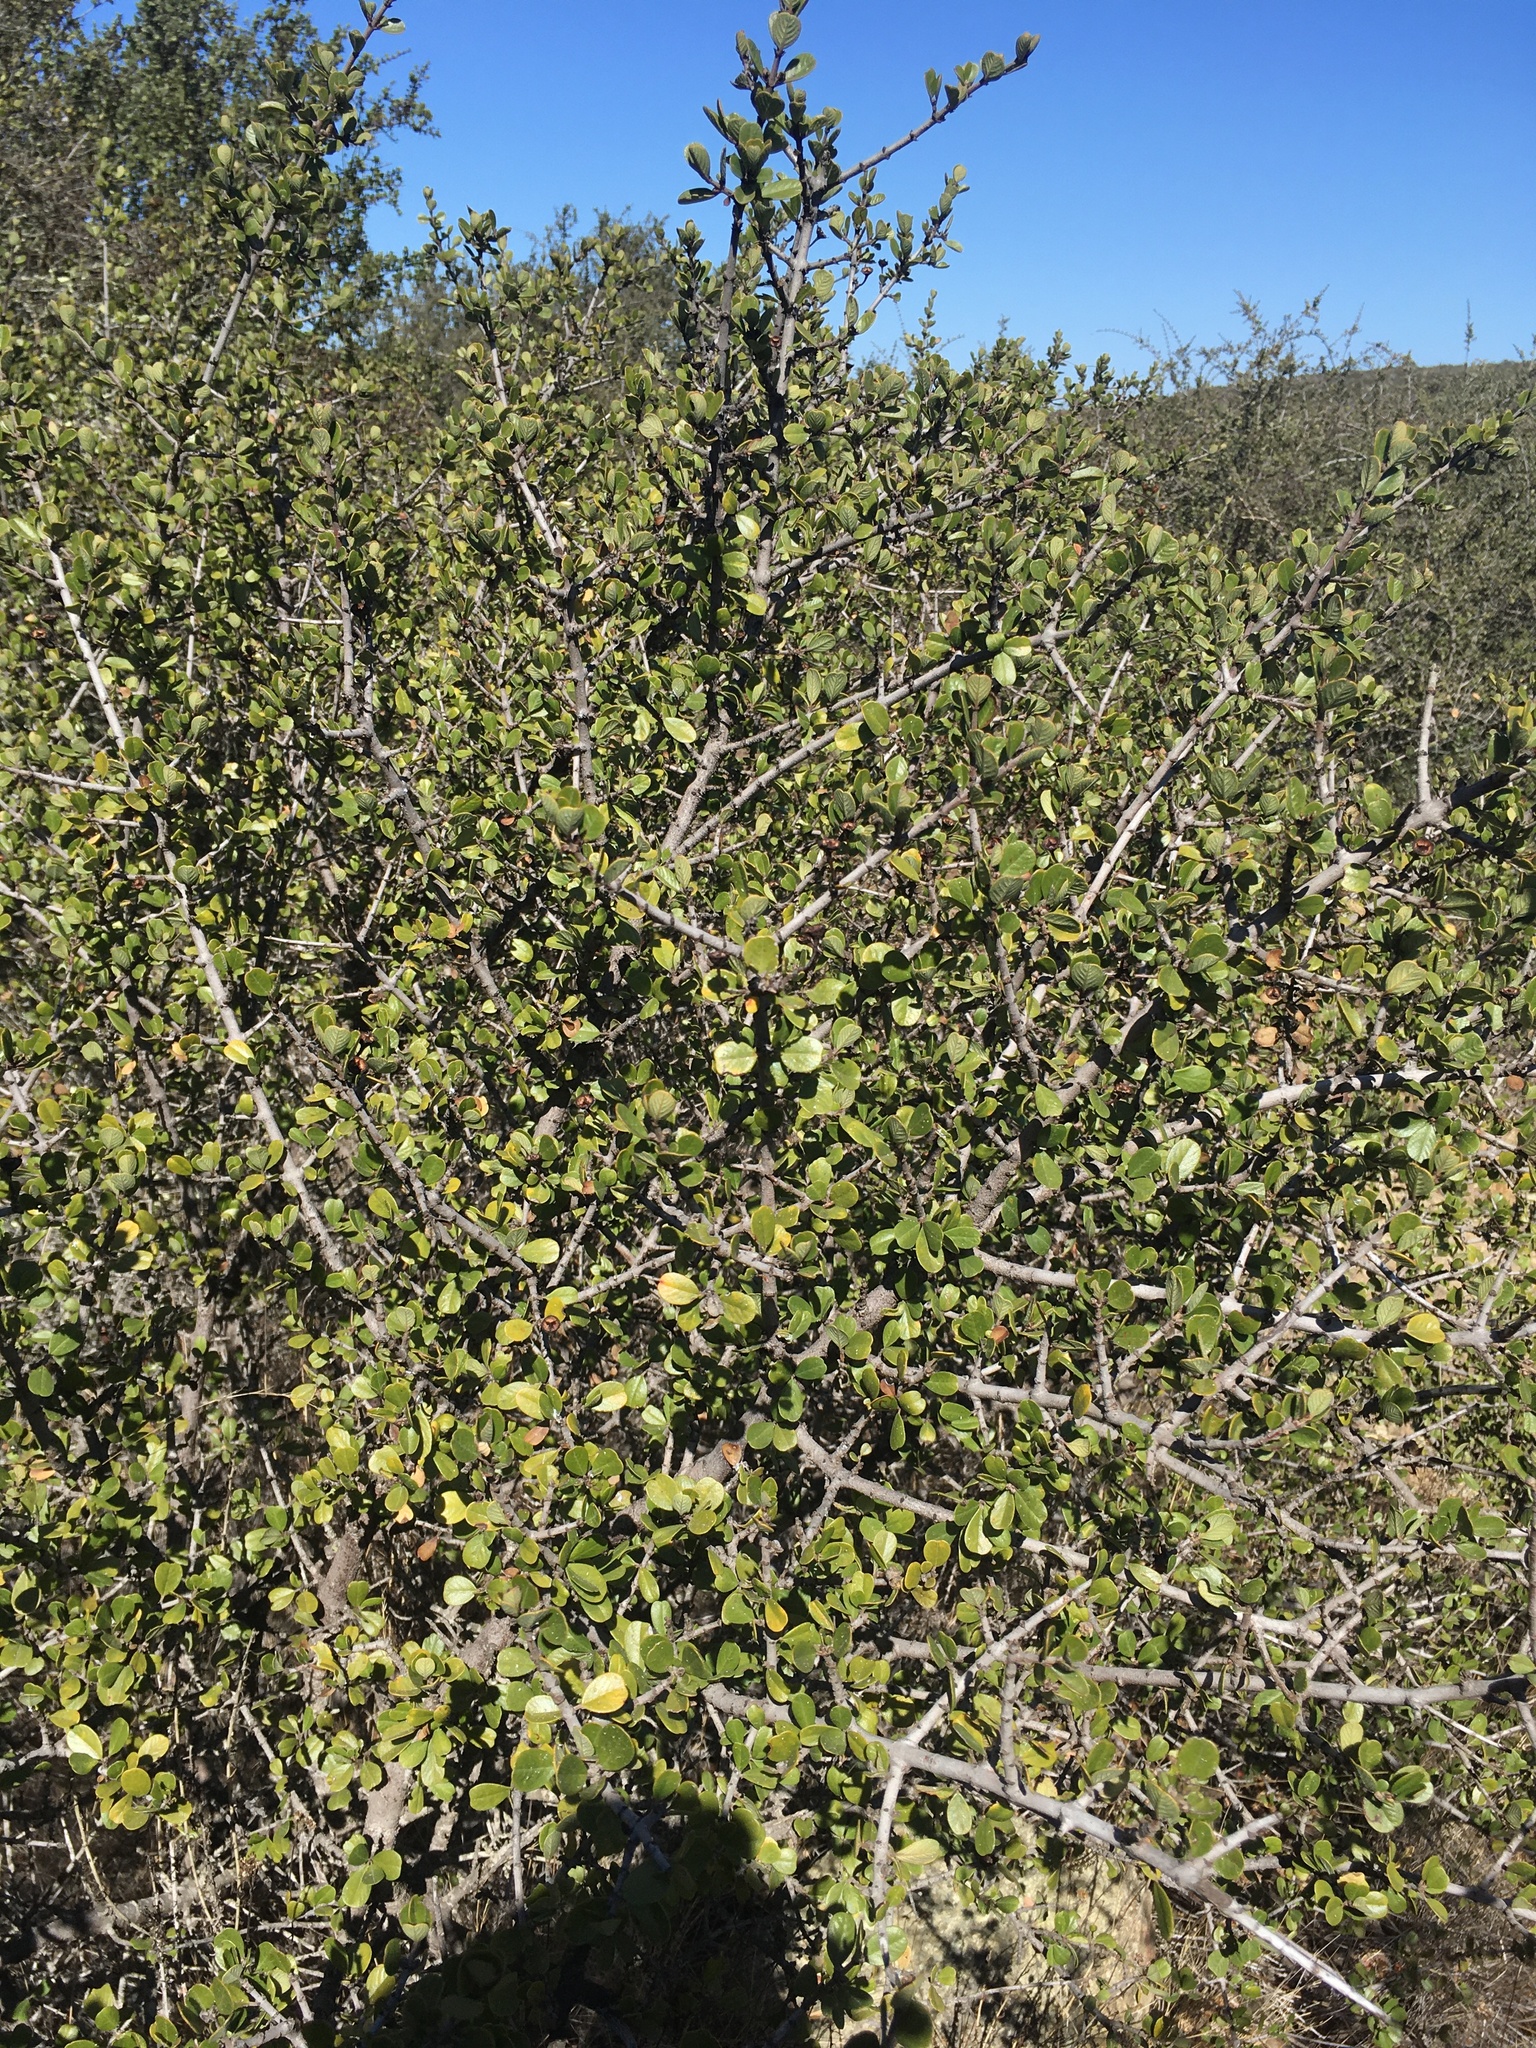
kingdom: Plantae
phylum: Tracheophyta
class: Magnoliopsida
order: Rosales
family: Rhamnaceae
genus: Ceanothus
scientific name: Ceanothus cuneatus
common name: Cuneate ceanothus
